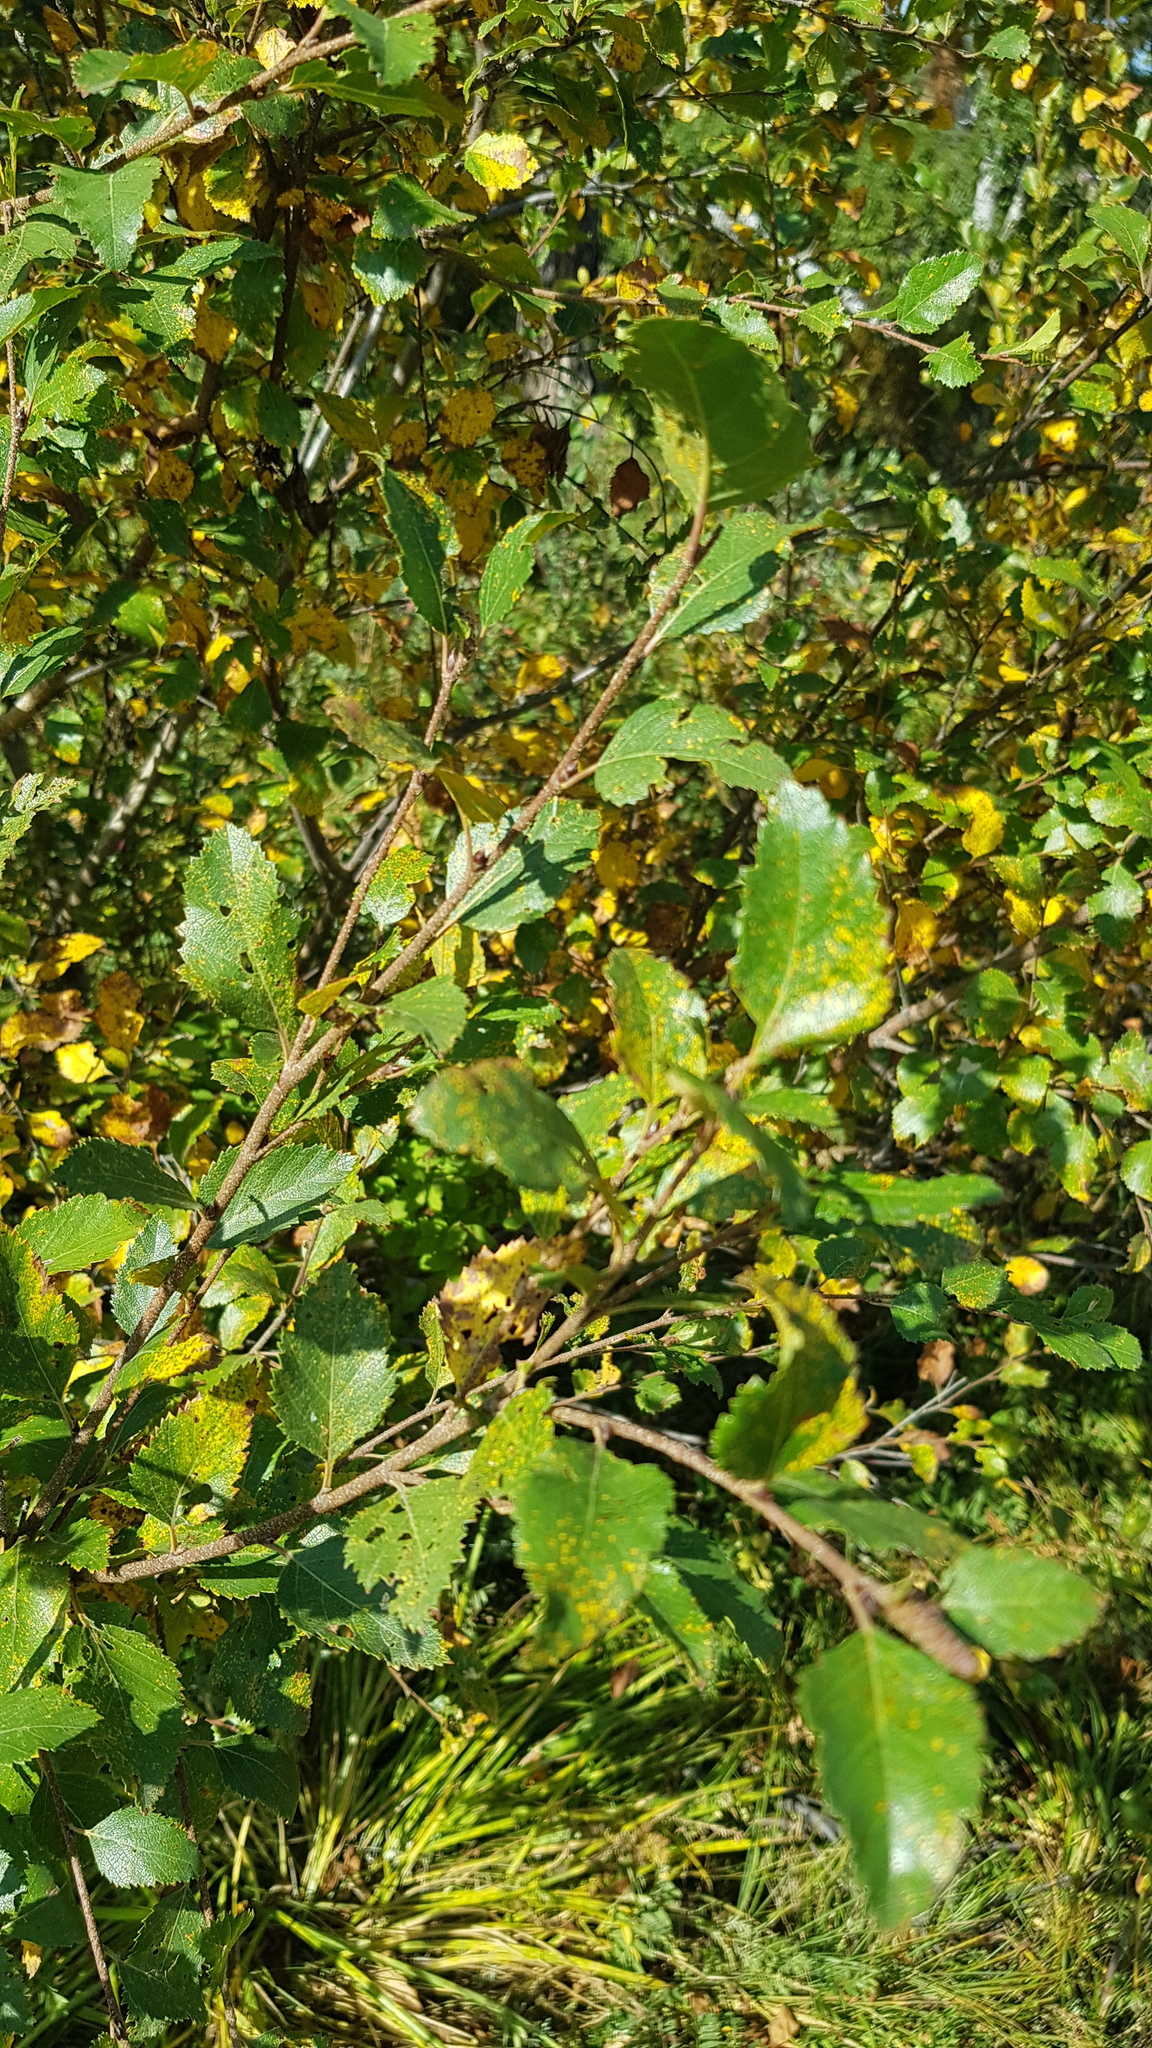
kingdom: Plantae
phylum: Tracheophyta
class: Magnoliopsida
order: Fagales
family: Betulaceae
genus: Betula
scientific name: Betula fruticosa
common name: Japanese bog birch
